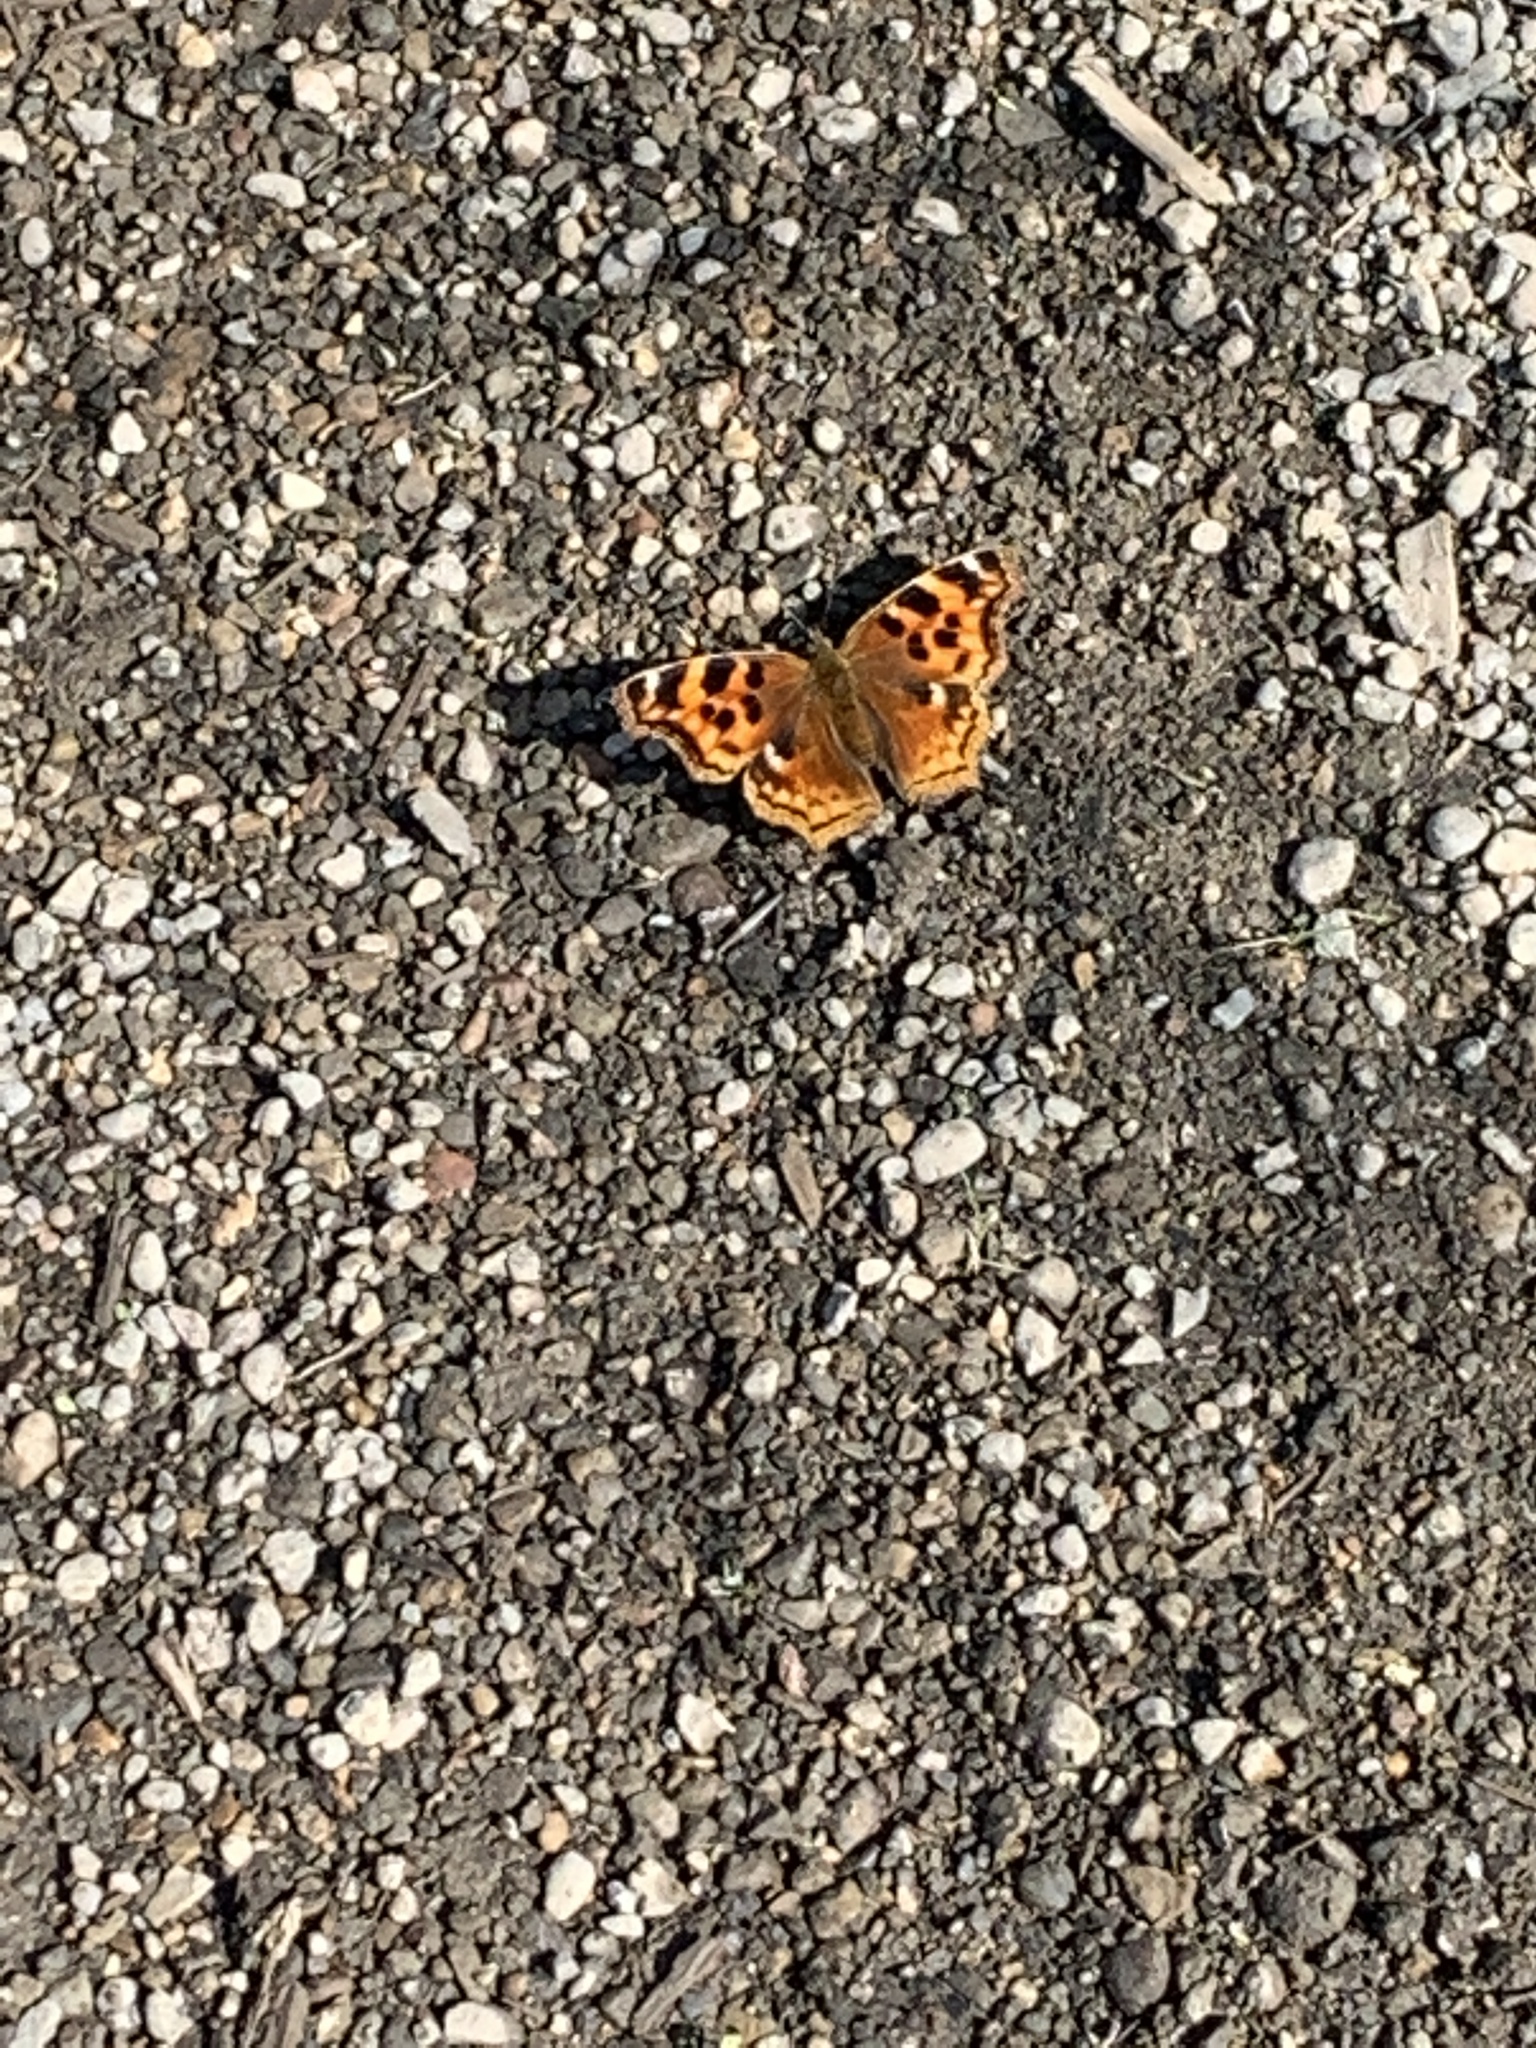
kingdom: Animalia
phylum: Arthropoda
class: Insecta
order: Lepidoptera
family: Nymphalidae
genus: Polygonia
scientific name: Polygonia vaualbum
